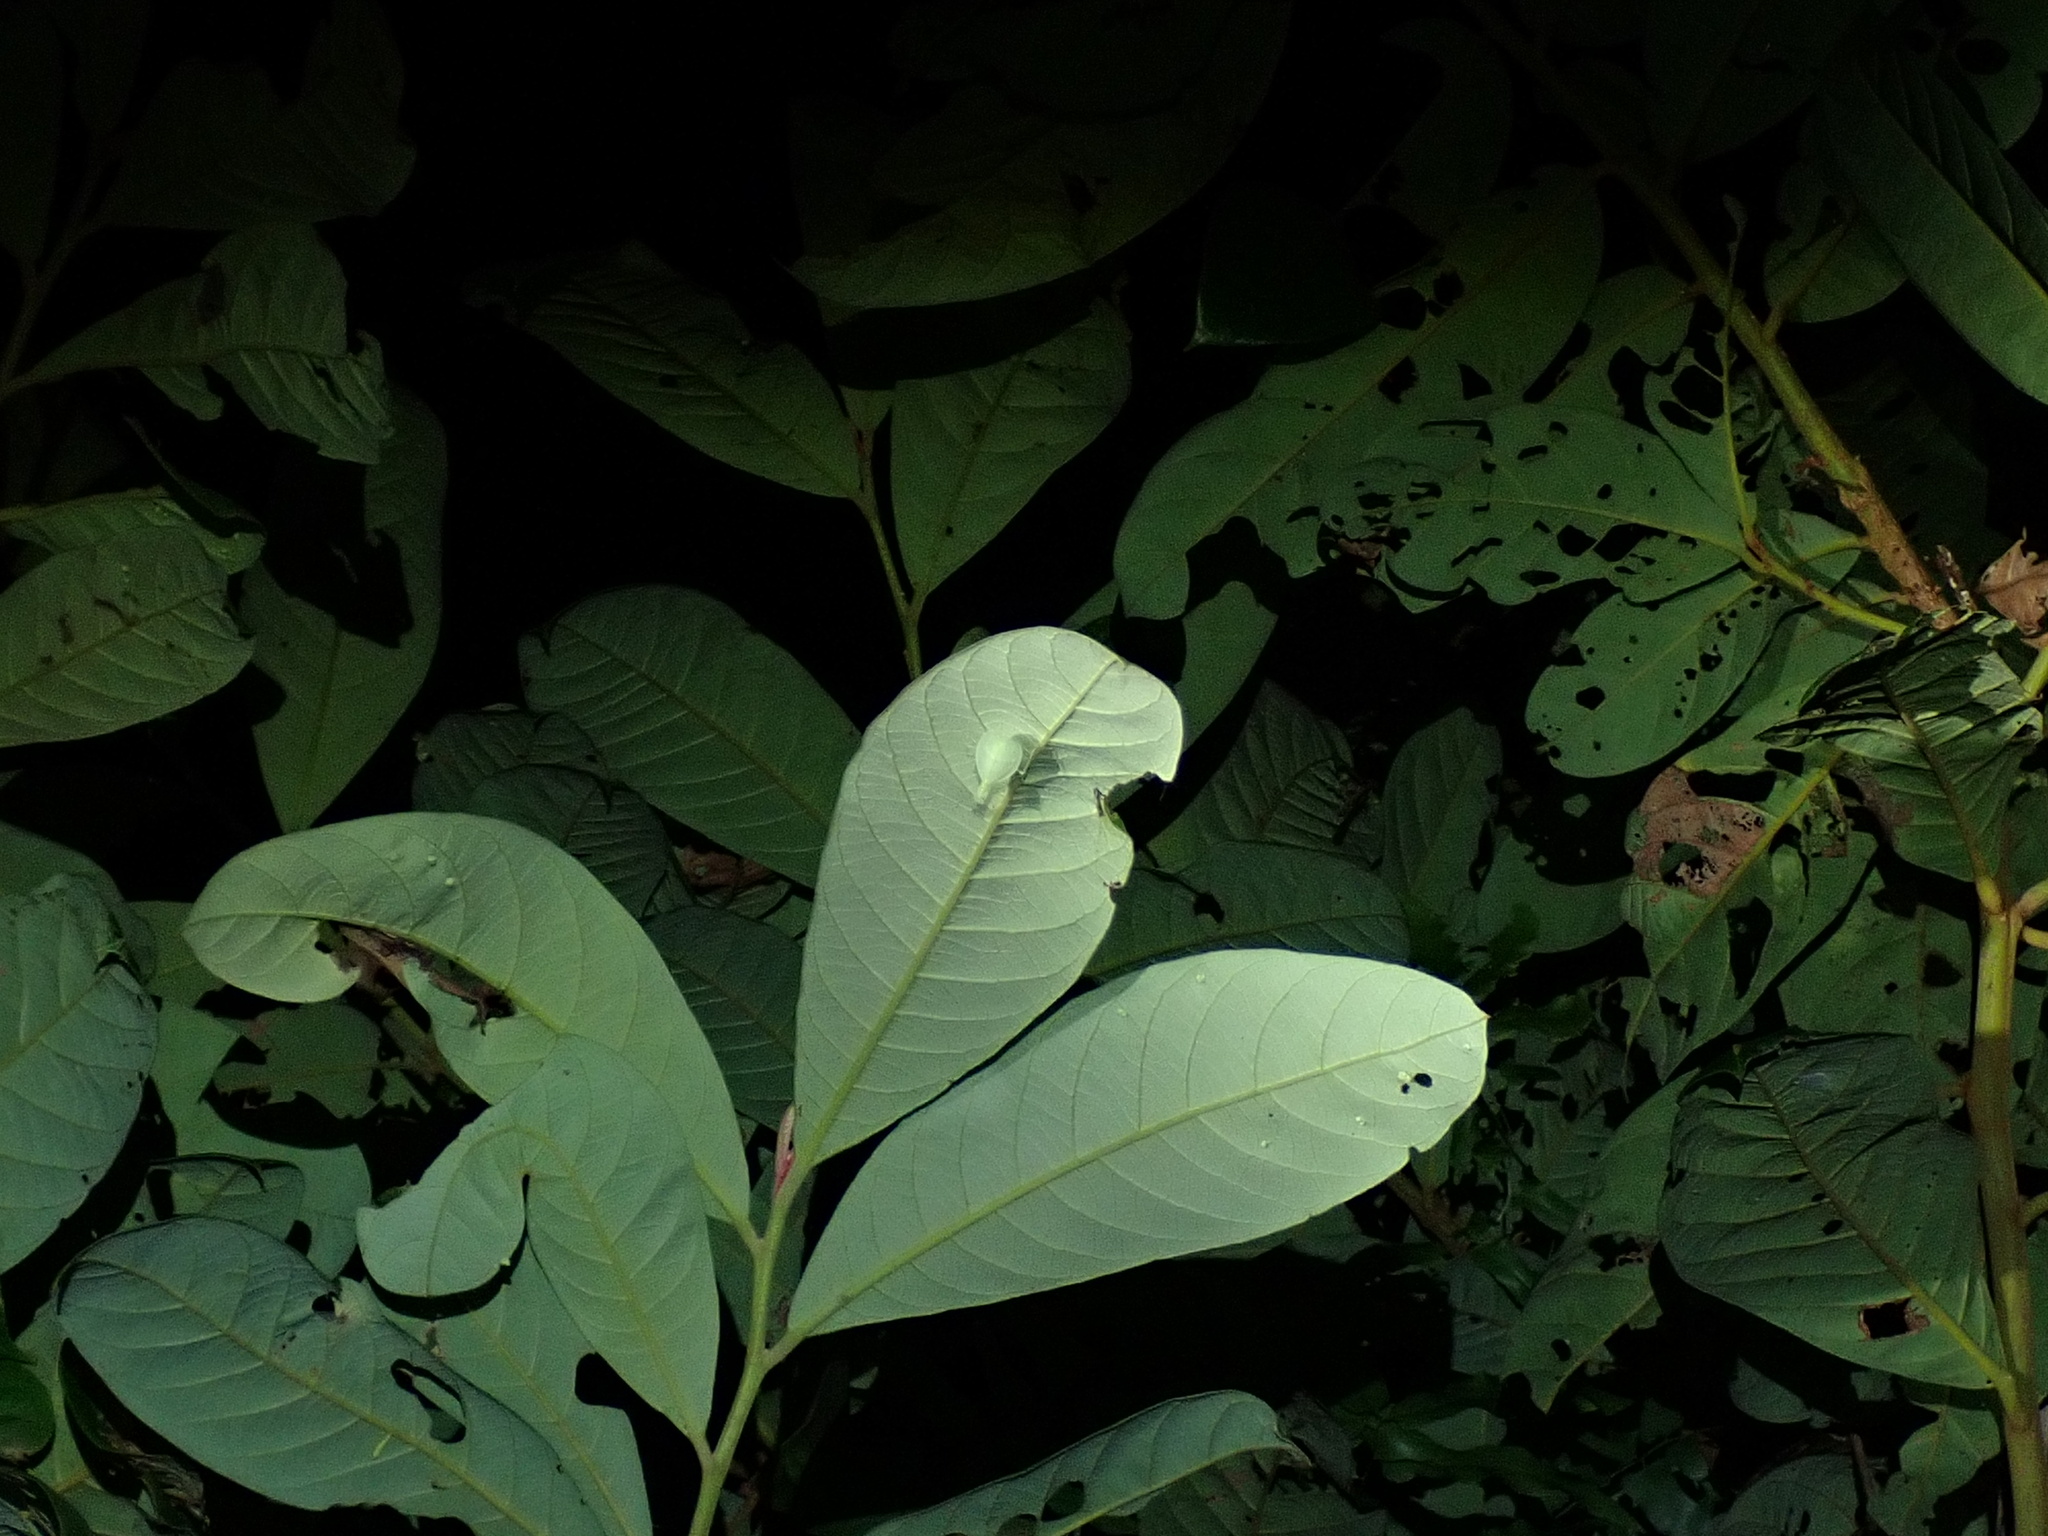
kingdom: Animalia
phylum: Arthropoda
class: Insecta
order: Mantodea
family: Nanomantidae
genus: Neomantis
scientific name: Neomantis australis
